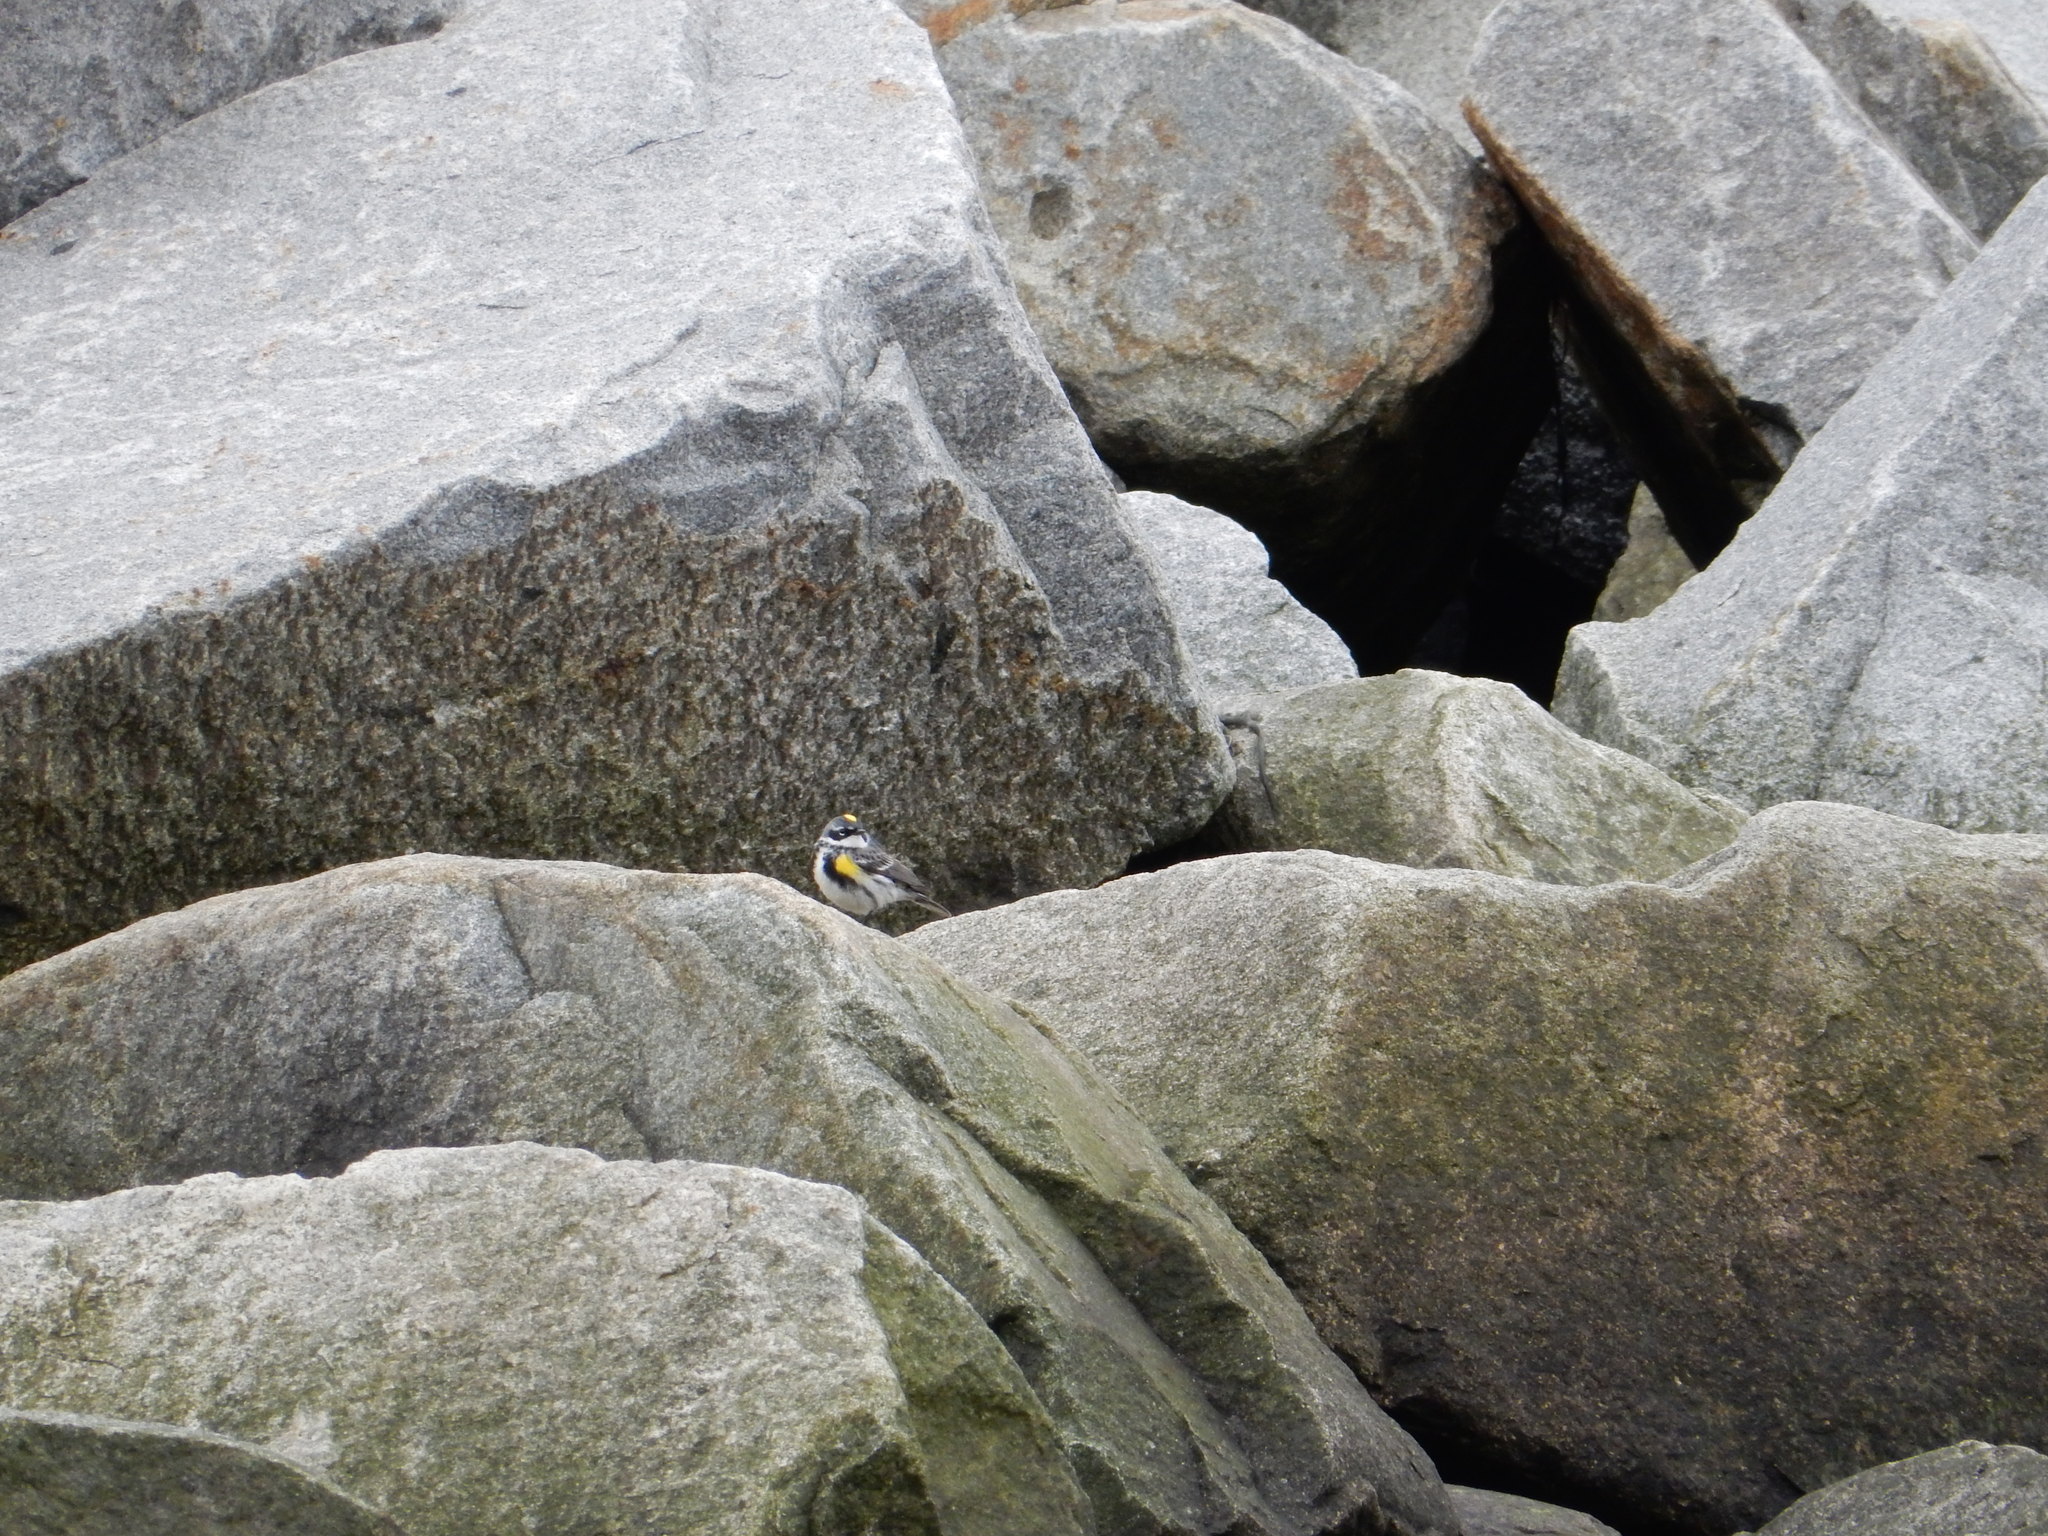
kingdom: Animalia
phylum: Chordata
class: Aves
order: Passeriformes
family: Parulidae
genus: Setophaga
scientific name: Setophaga coronata
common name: Myrtle warbler
